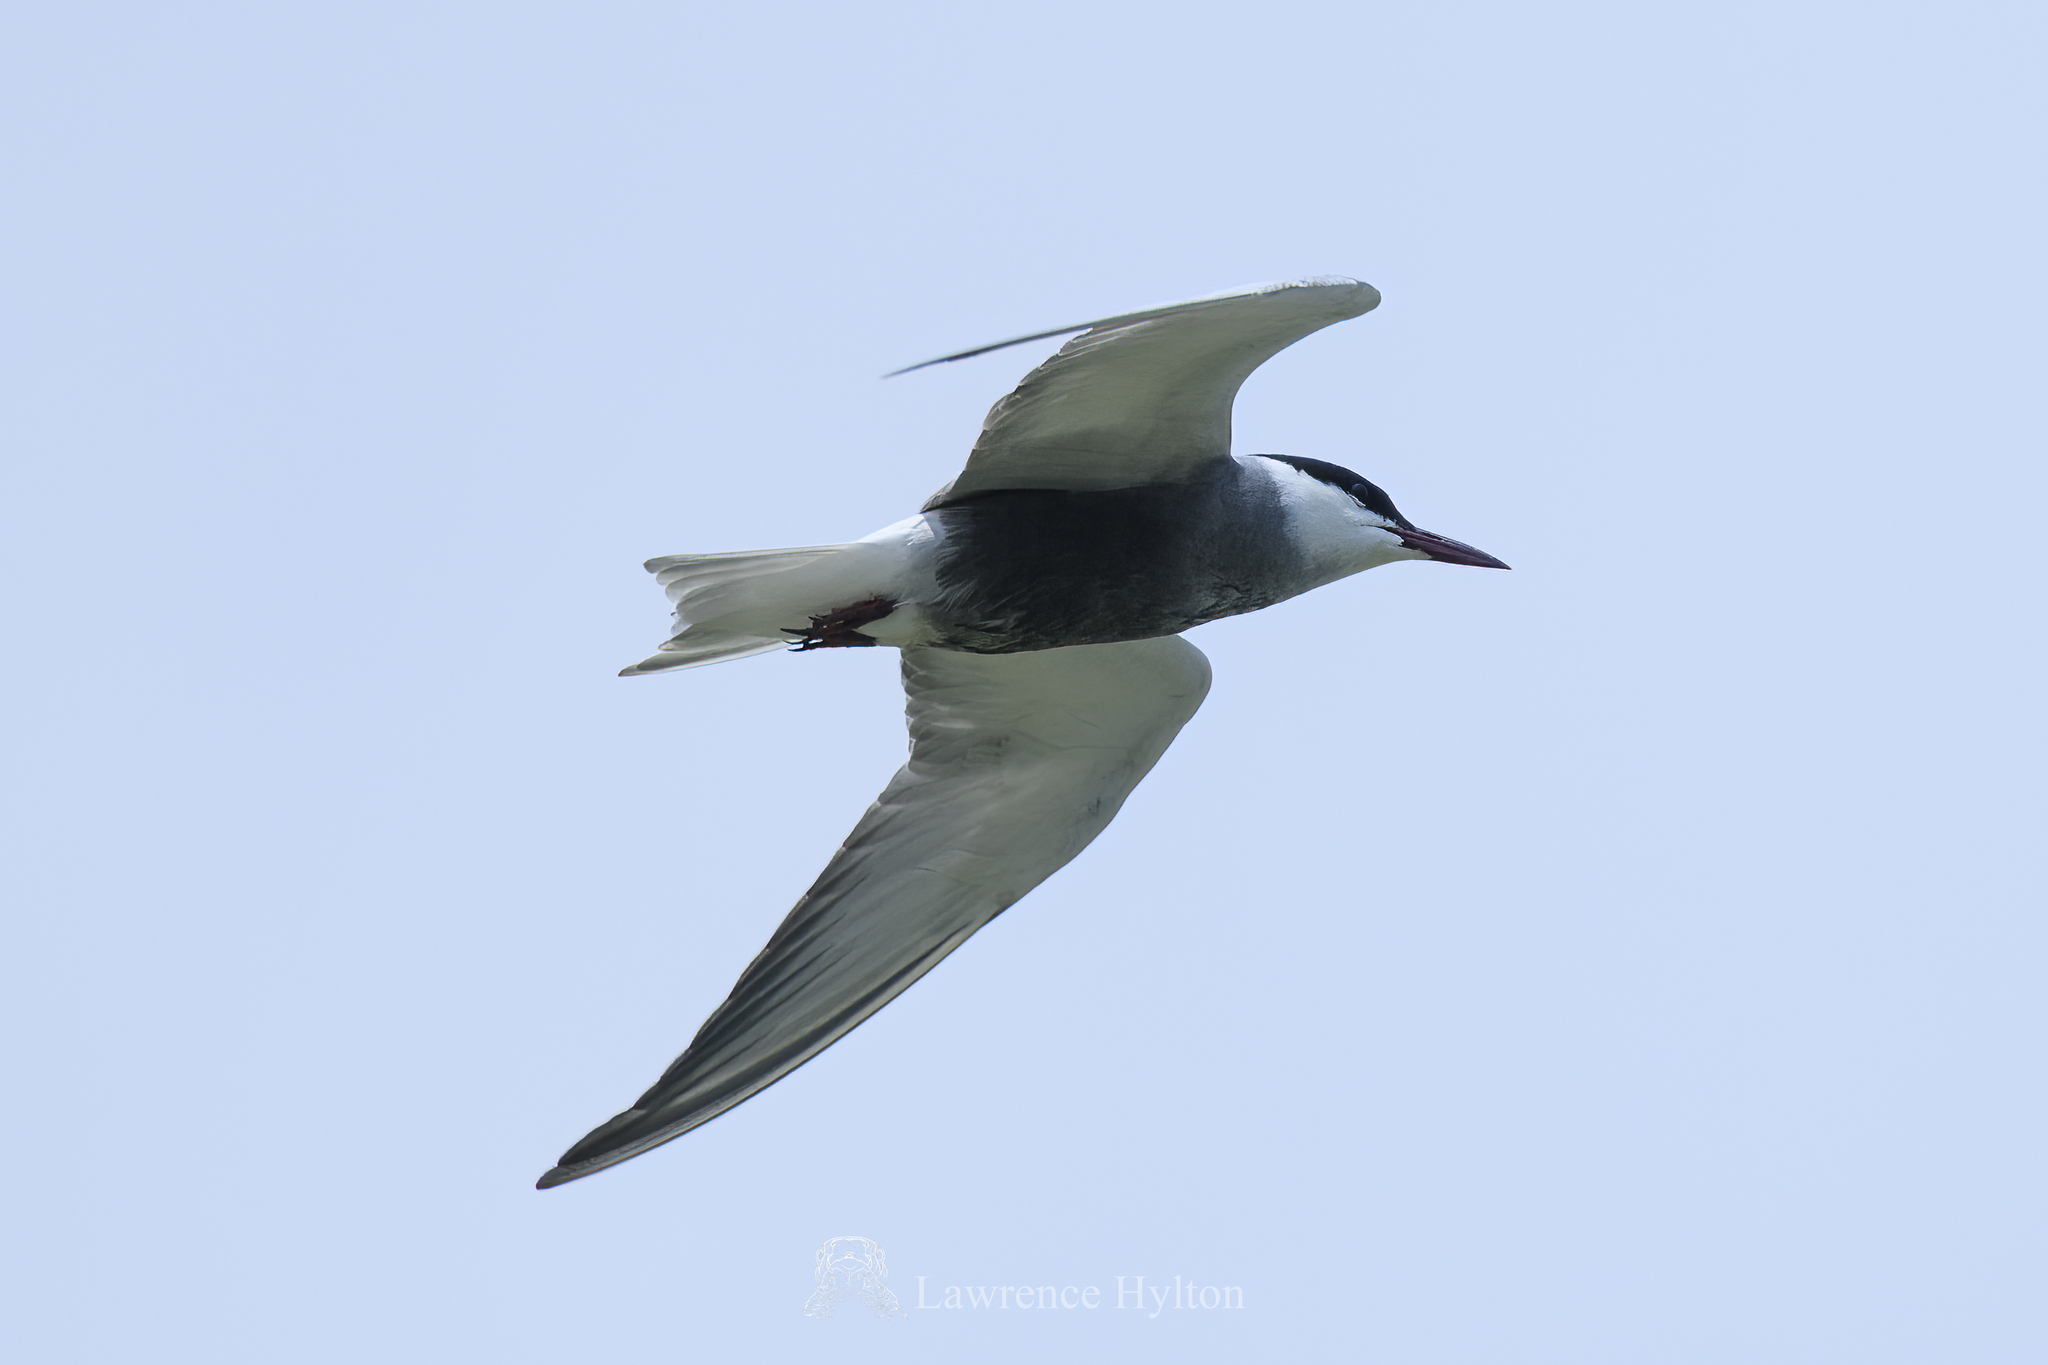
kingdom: Animalia
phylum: Chordata
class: Aves
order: Charadriiformes
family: Laridae
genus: Chlidonias
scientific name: Chlidonias hybrida
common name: Whiskered tern
